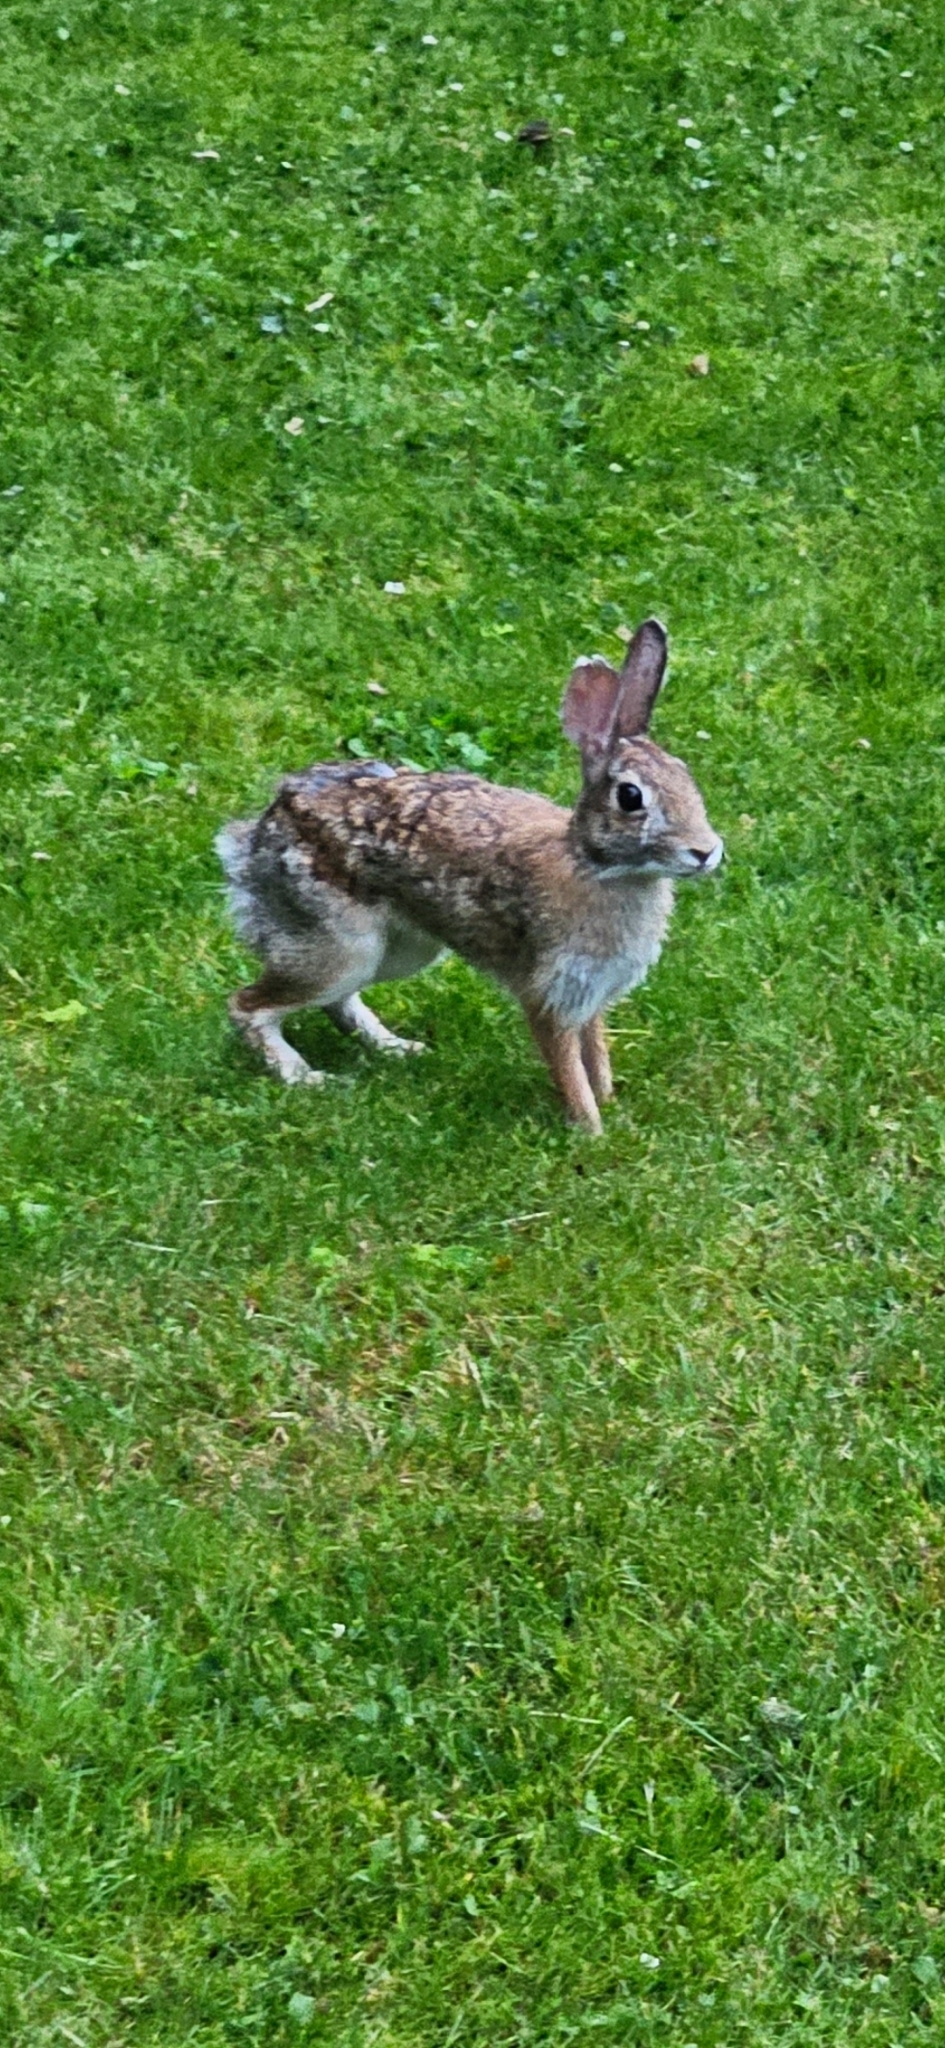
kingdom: Animalia
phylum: Chordata
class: Mammalia
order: Lagomorpha
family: Leporidae
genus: Sylvilagus
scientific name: Sylvilagus floridanus
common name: Eastern cottontail
